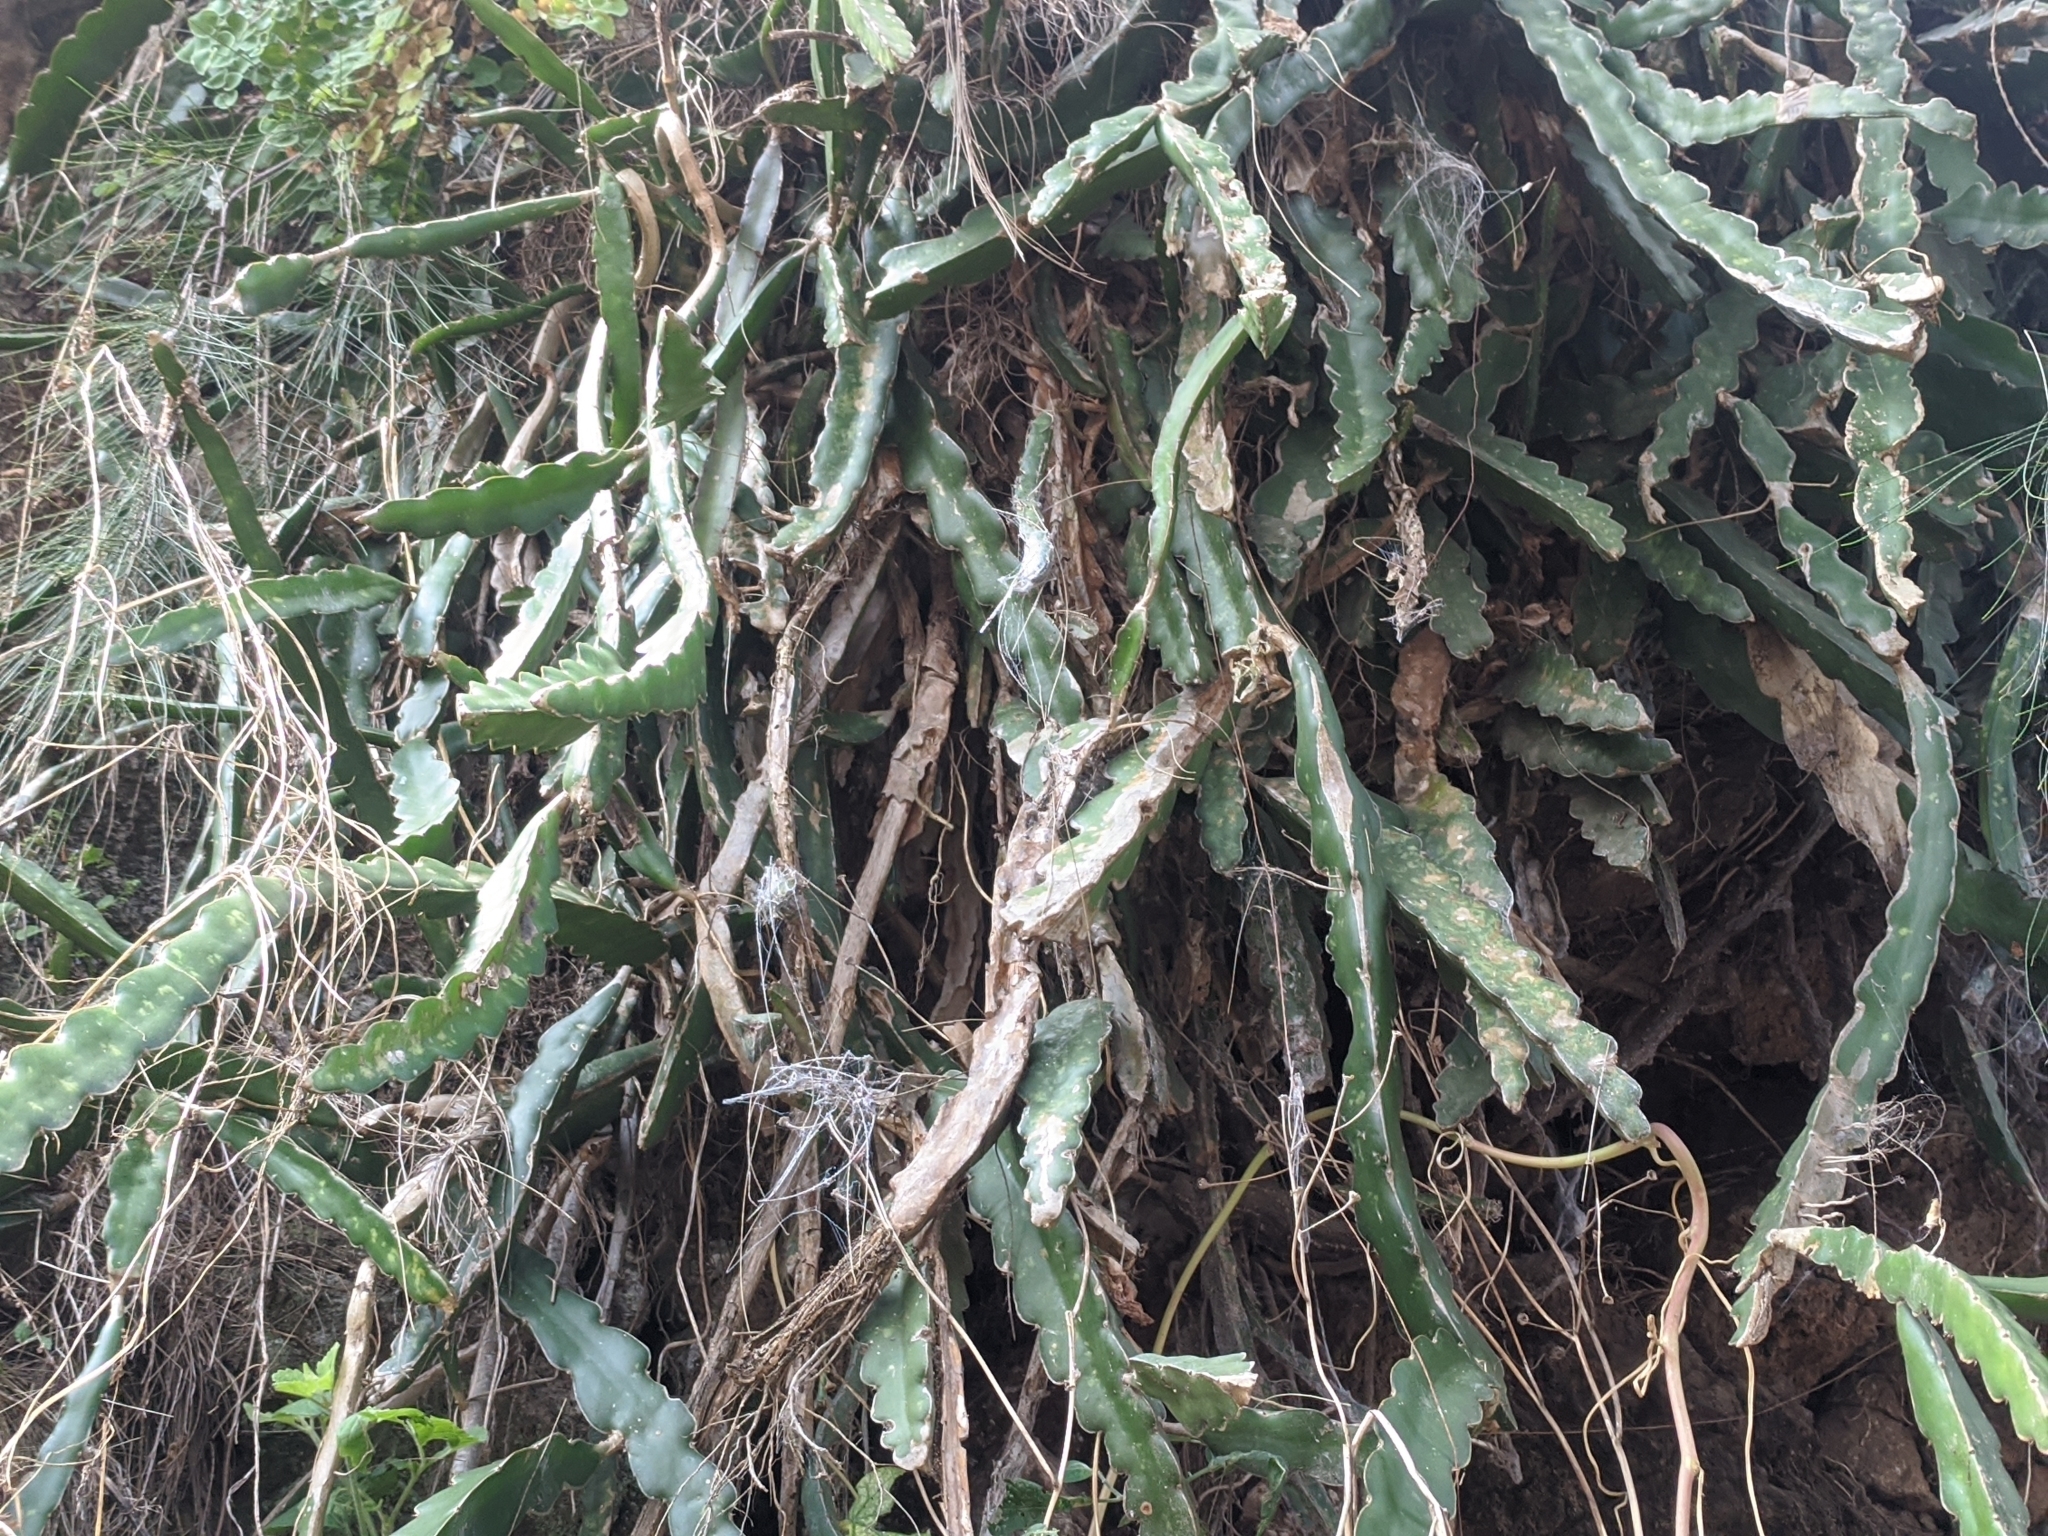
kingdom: Plantae
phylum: Tracheophyta
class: Magnoliopsida
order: Caryophyllales
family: Cactaceae
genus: Selenicereus
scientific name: Selenicereus undatus
